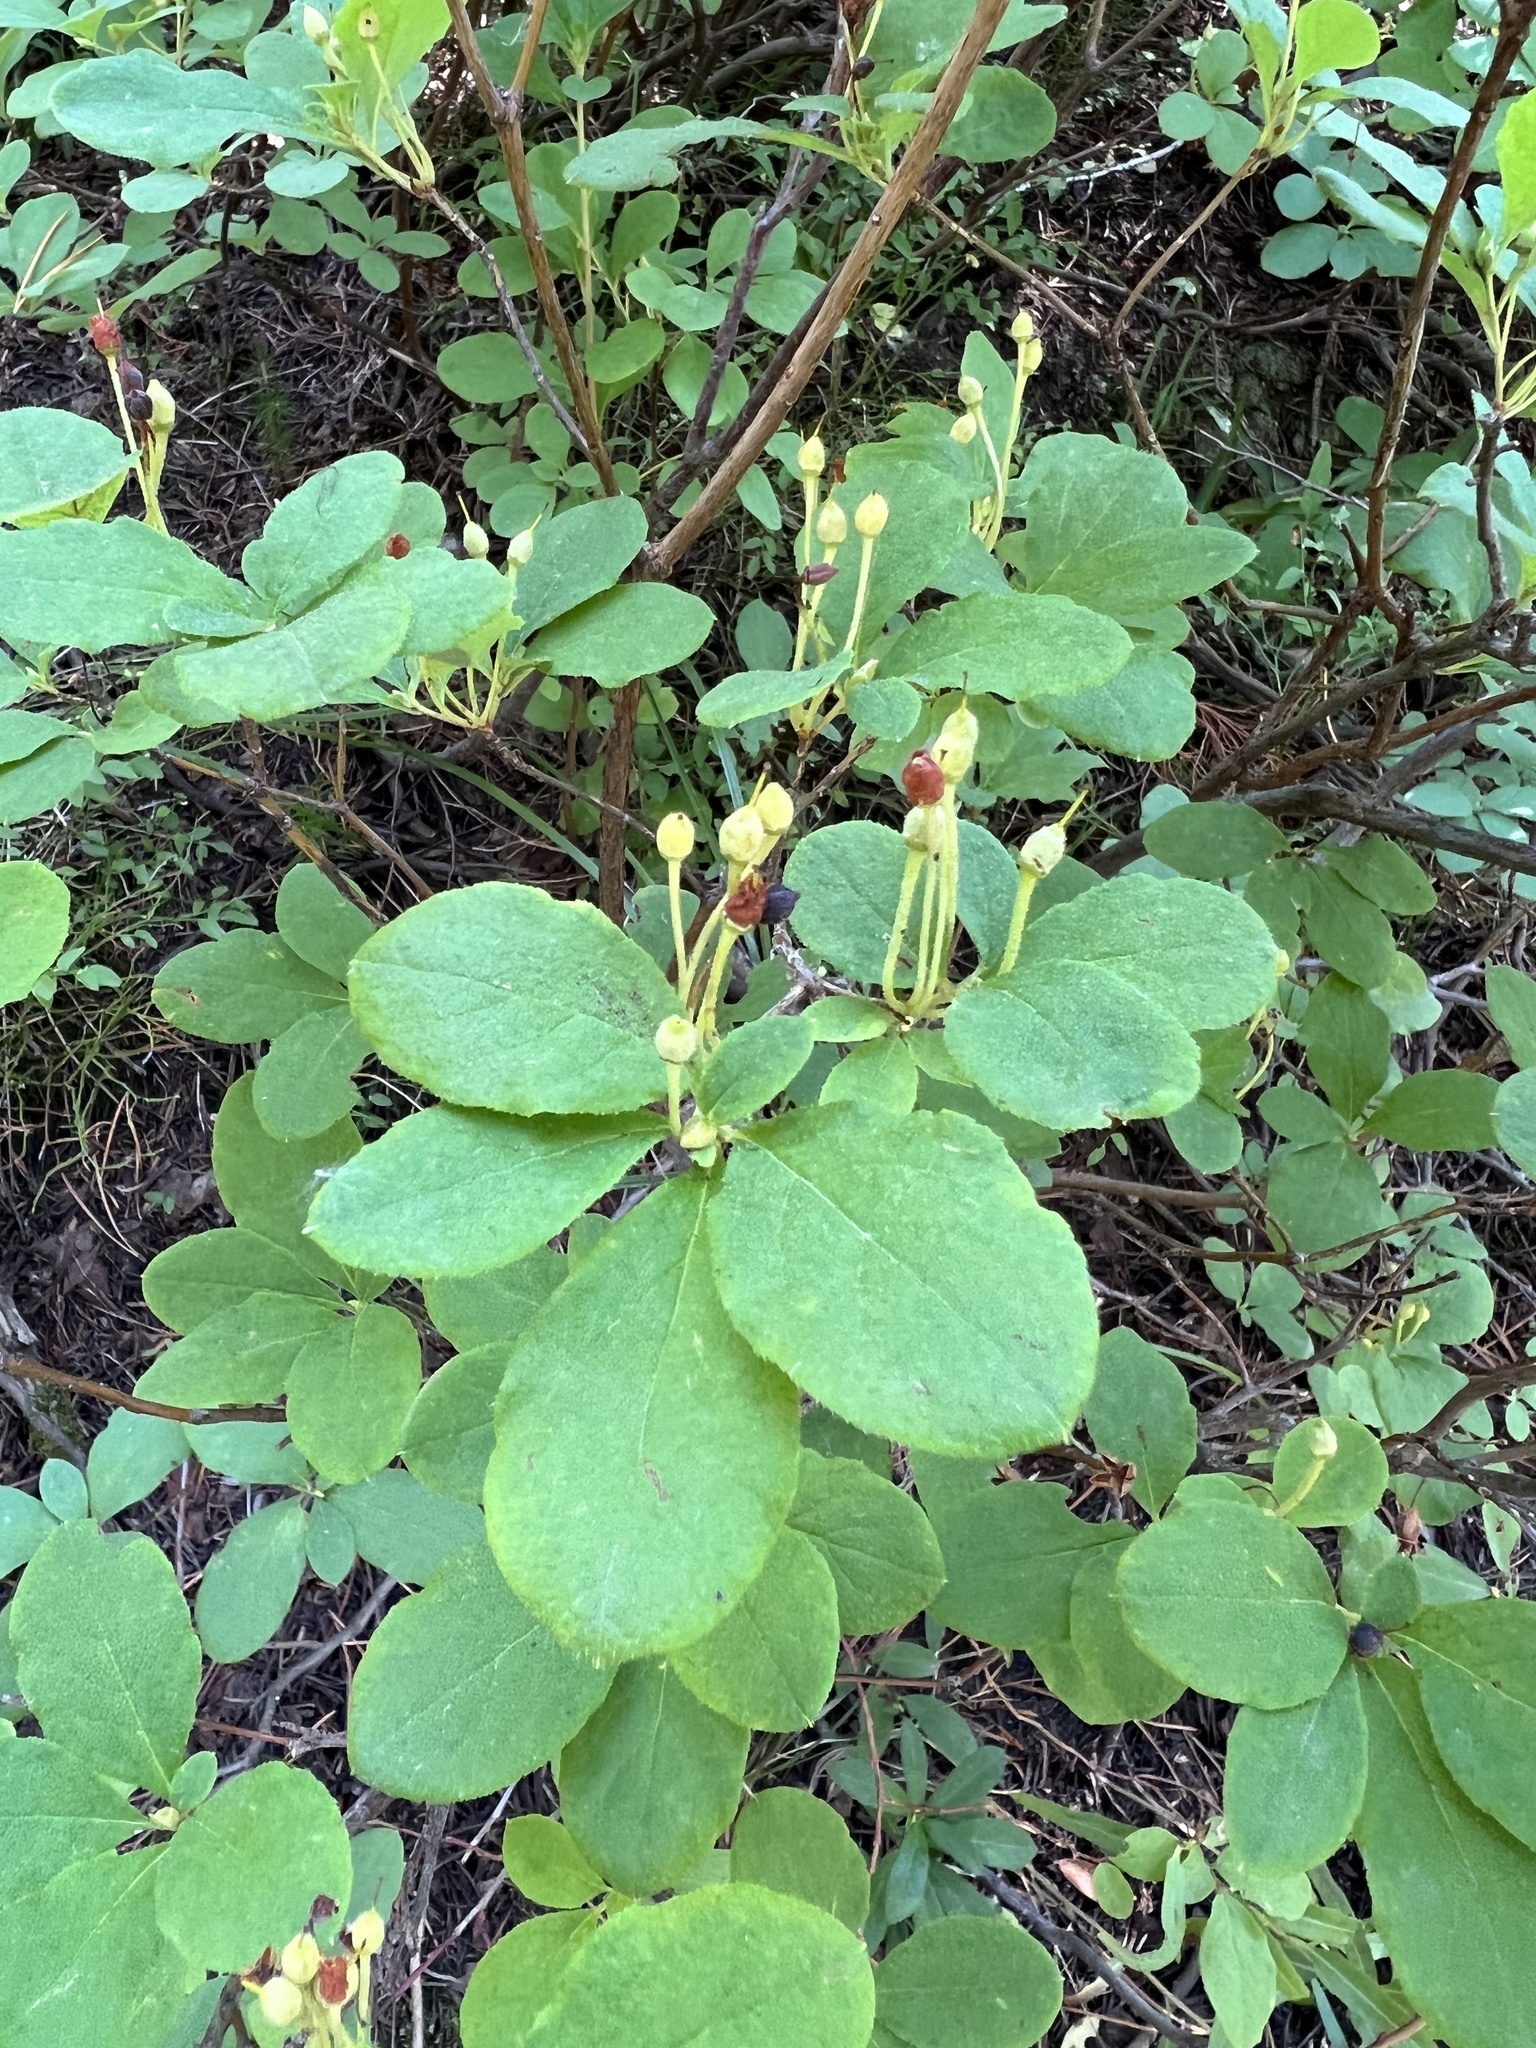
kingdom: Plantae
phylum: Tracheophyta
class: Magnoliopsida
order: Ericales
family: Ericaceae
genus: Rhododendron
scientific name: Rhododendron menziesii
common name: Pacific menziesia
